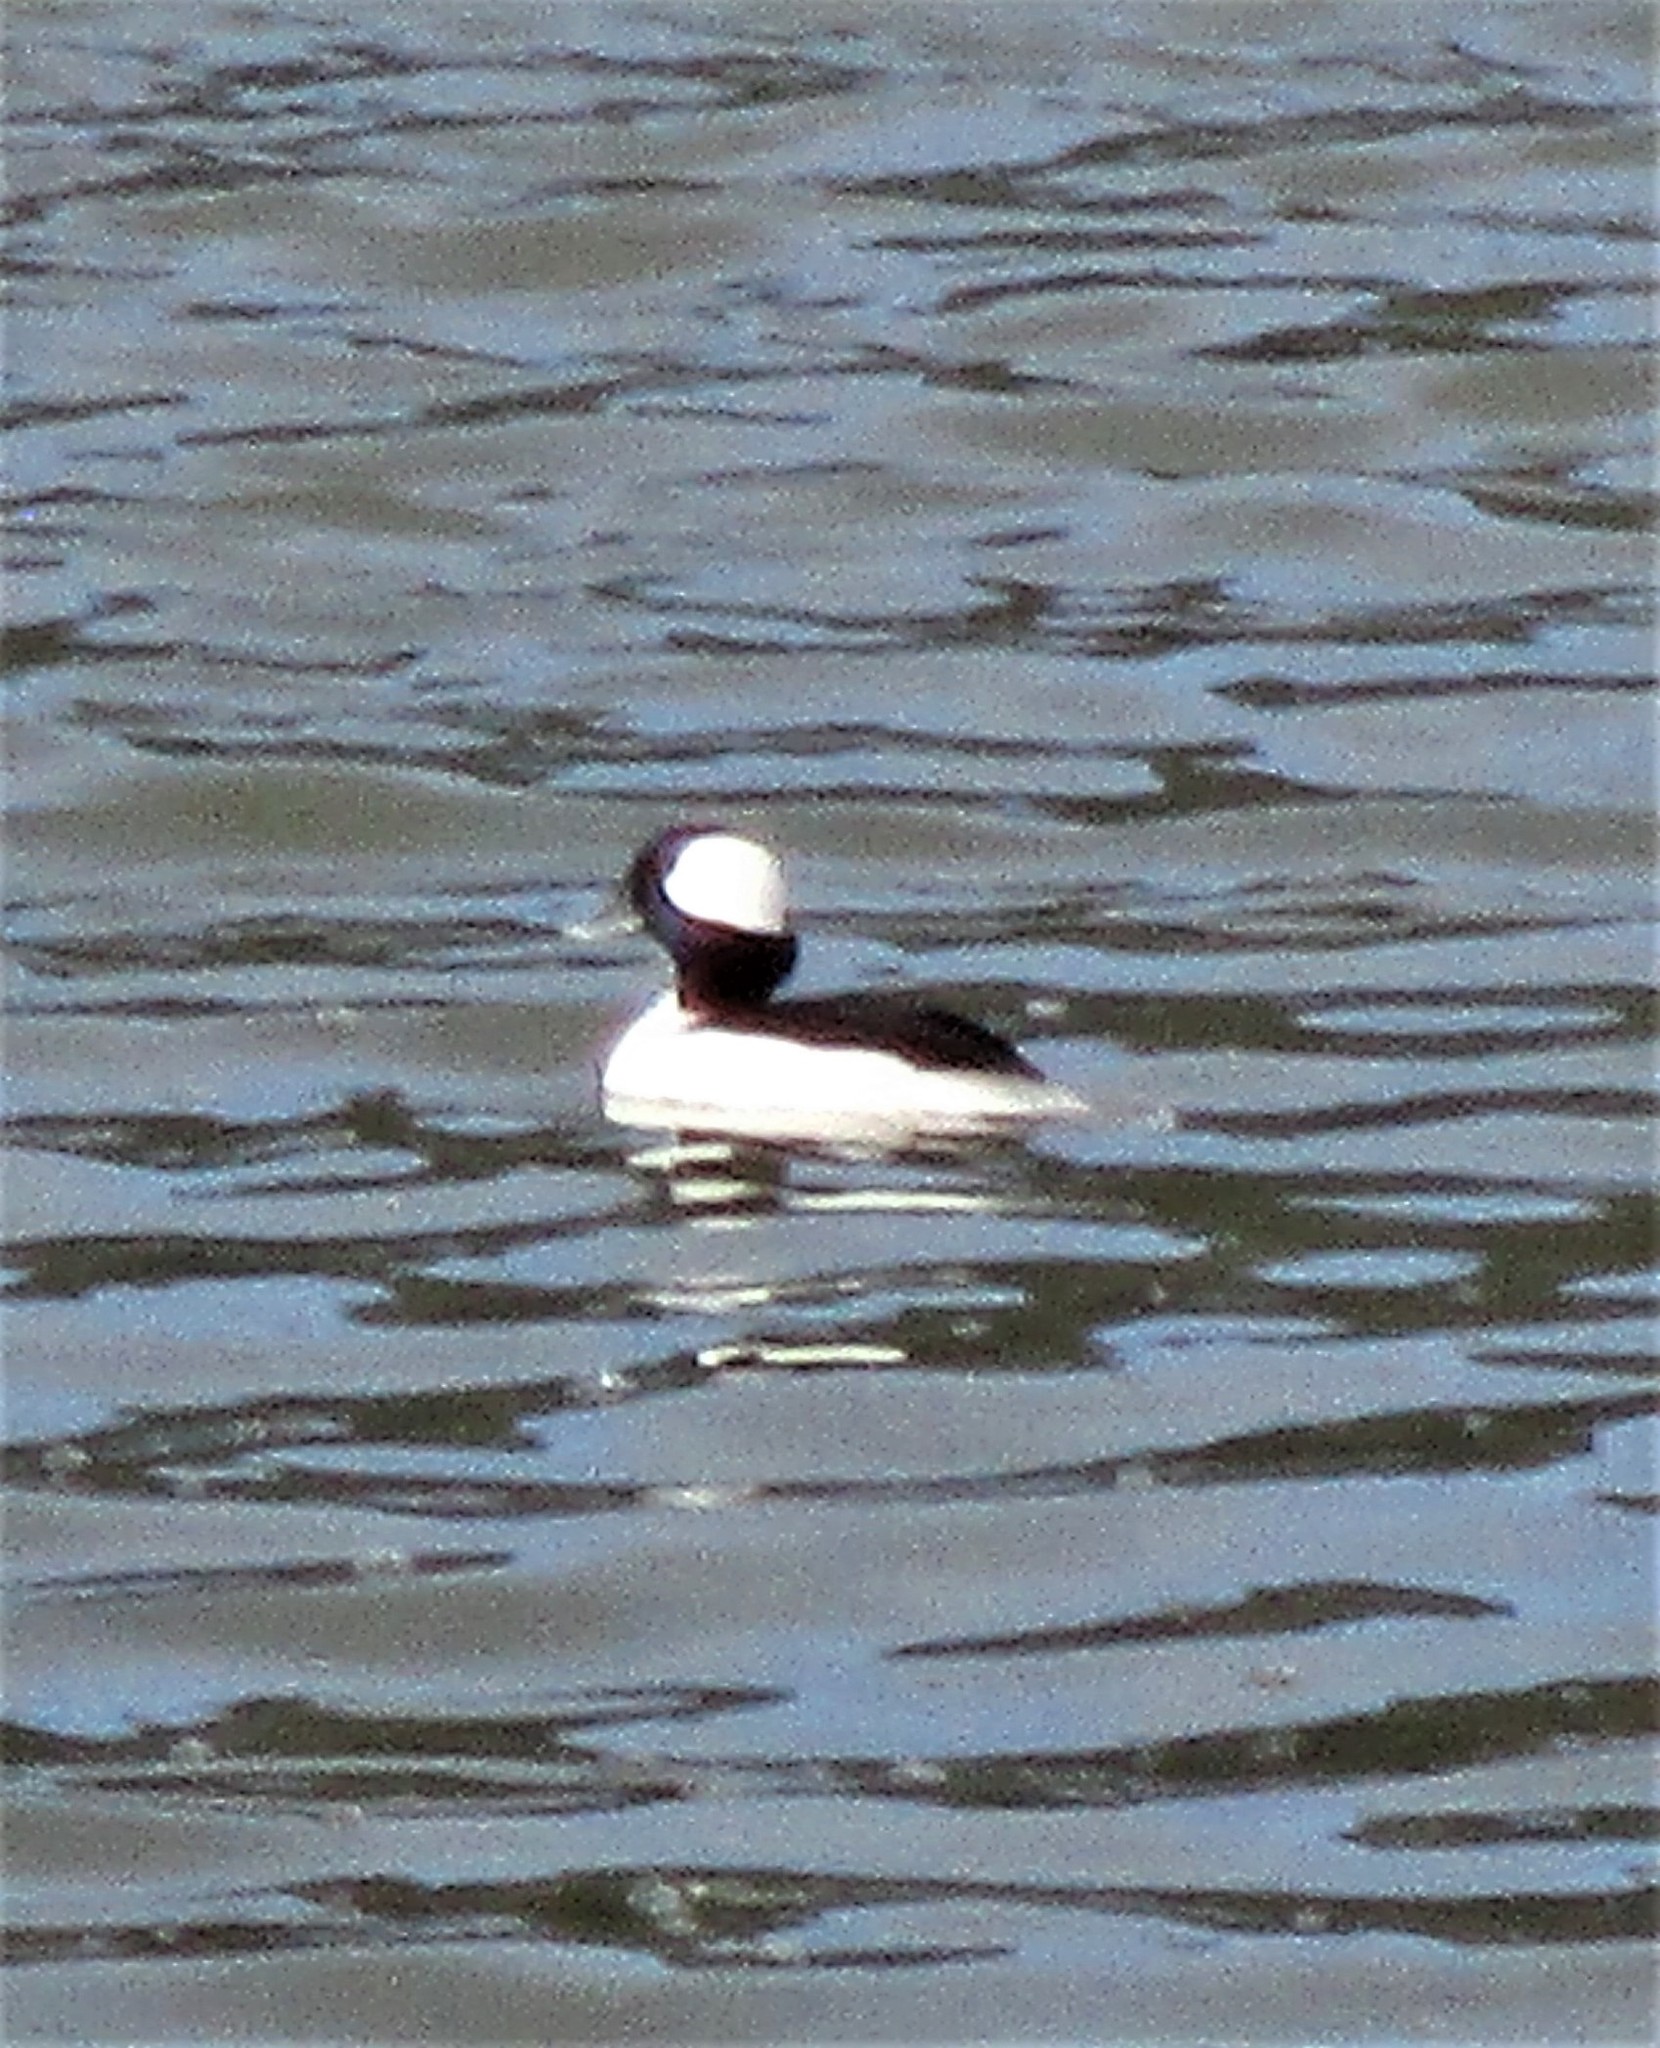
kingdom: Animalia
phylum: Chordata
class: Aves
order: Anseriformes
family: Anatidae
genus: Bucephala
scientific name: Bucephala albeola
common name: Bufflehead
